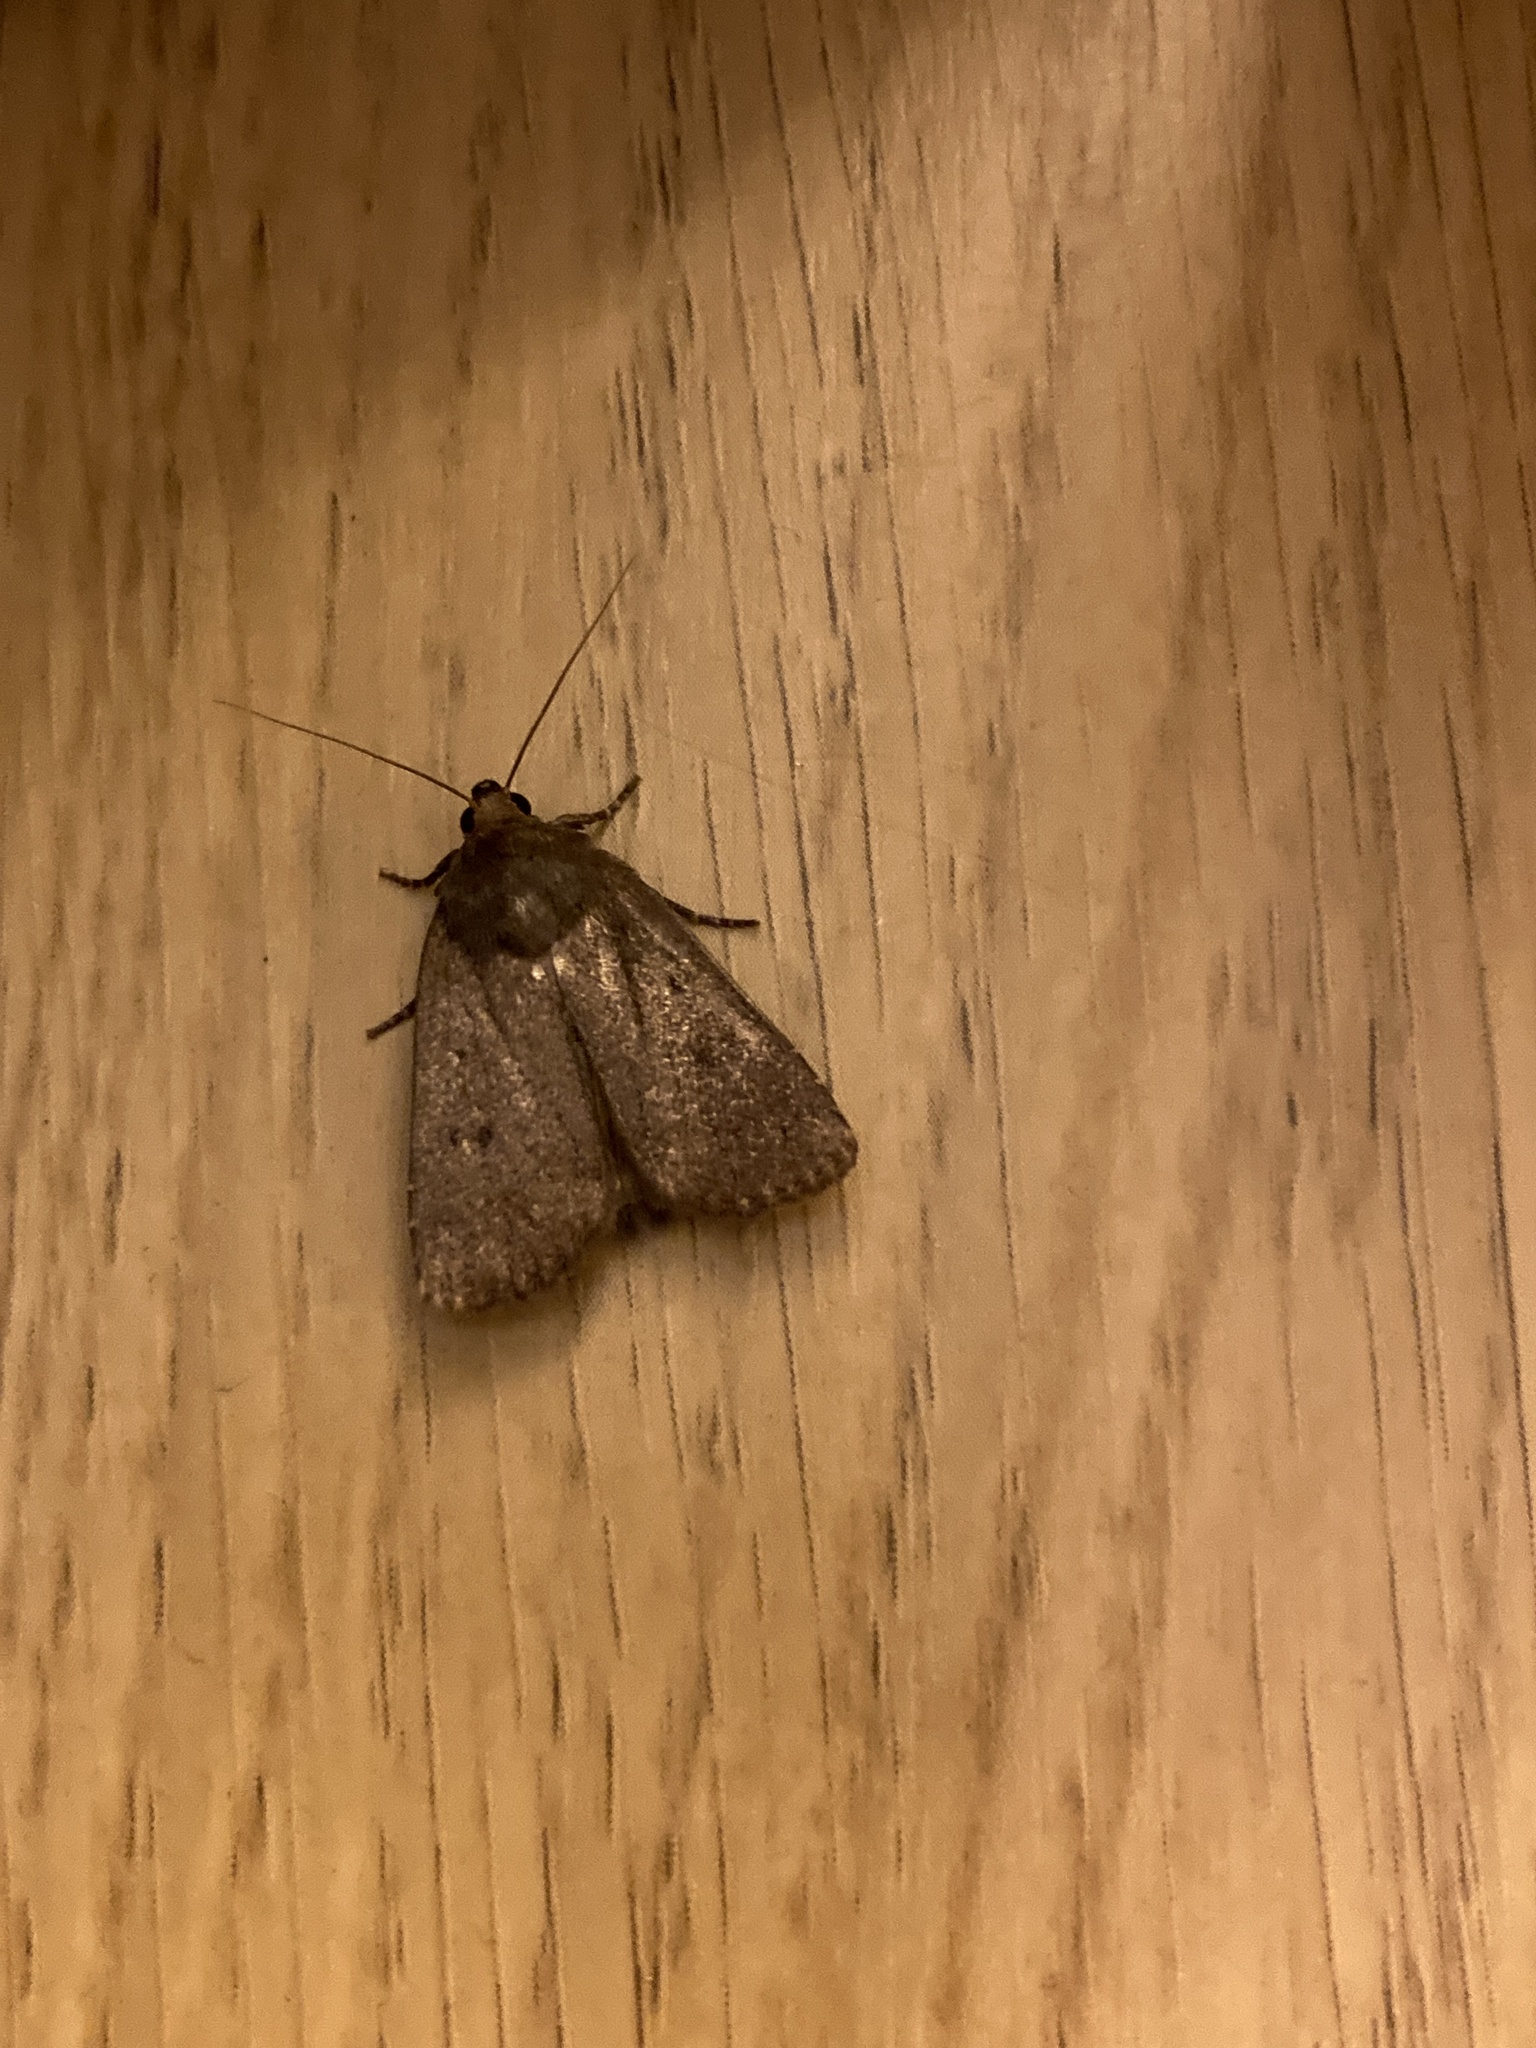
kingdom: Animalia
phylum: Arthropoda
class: Insecta
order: Lepidoptera
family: Noctuidae
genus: Amphipyra
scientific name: Amphipyra tragopoginis
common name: Mouse moth
